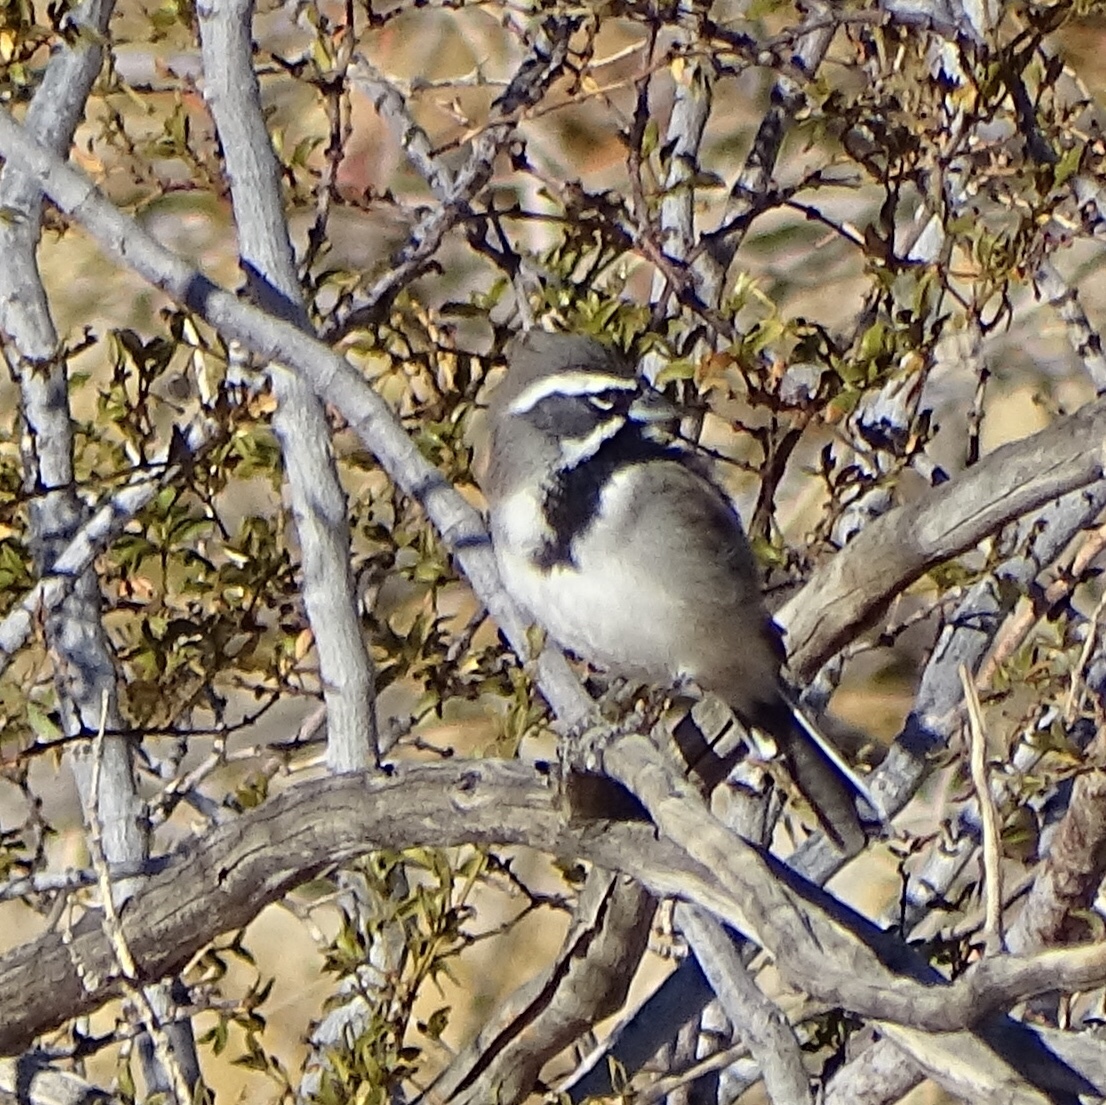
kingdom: Animalia
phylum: Chordata
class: Aves
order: Passeriformes
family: Passerellidae
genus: Amphispiza
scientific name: Amphispiza bilineata
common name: Black-throated sparrow
